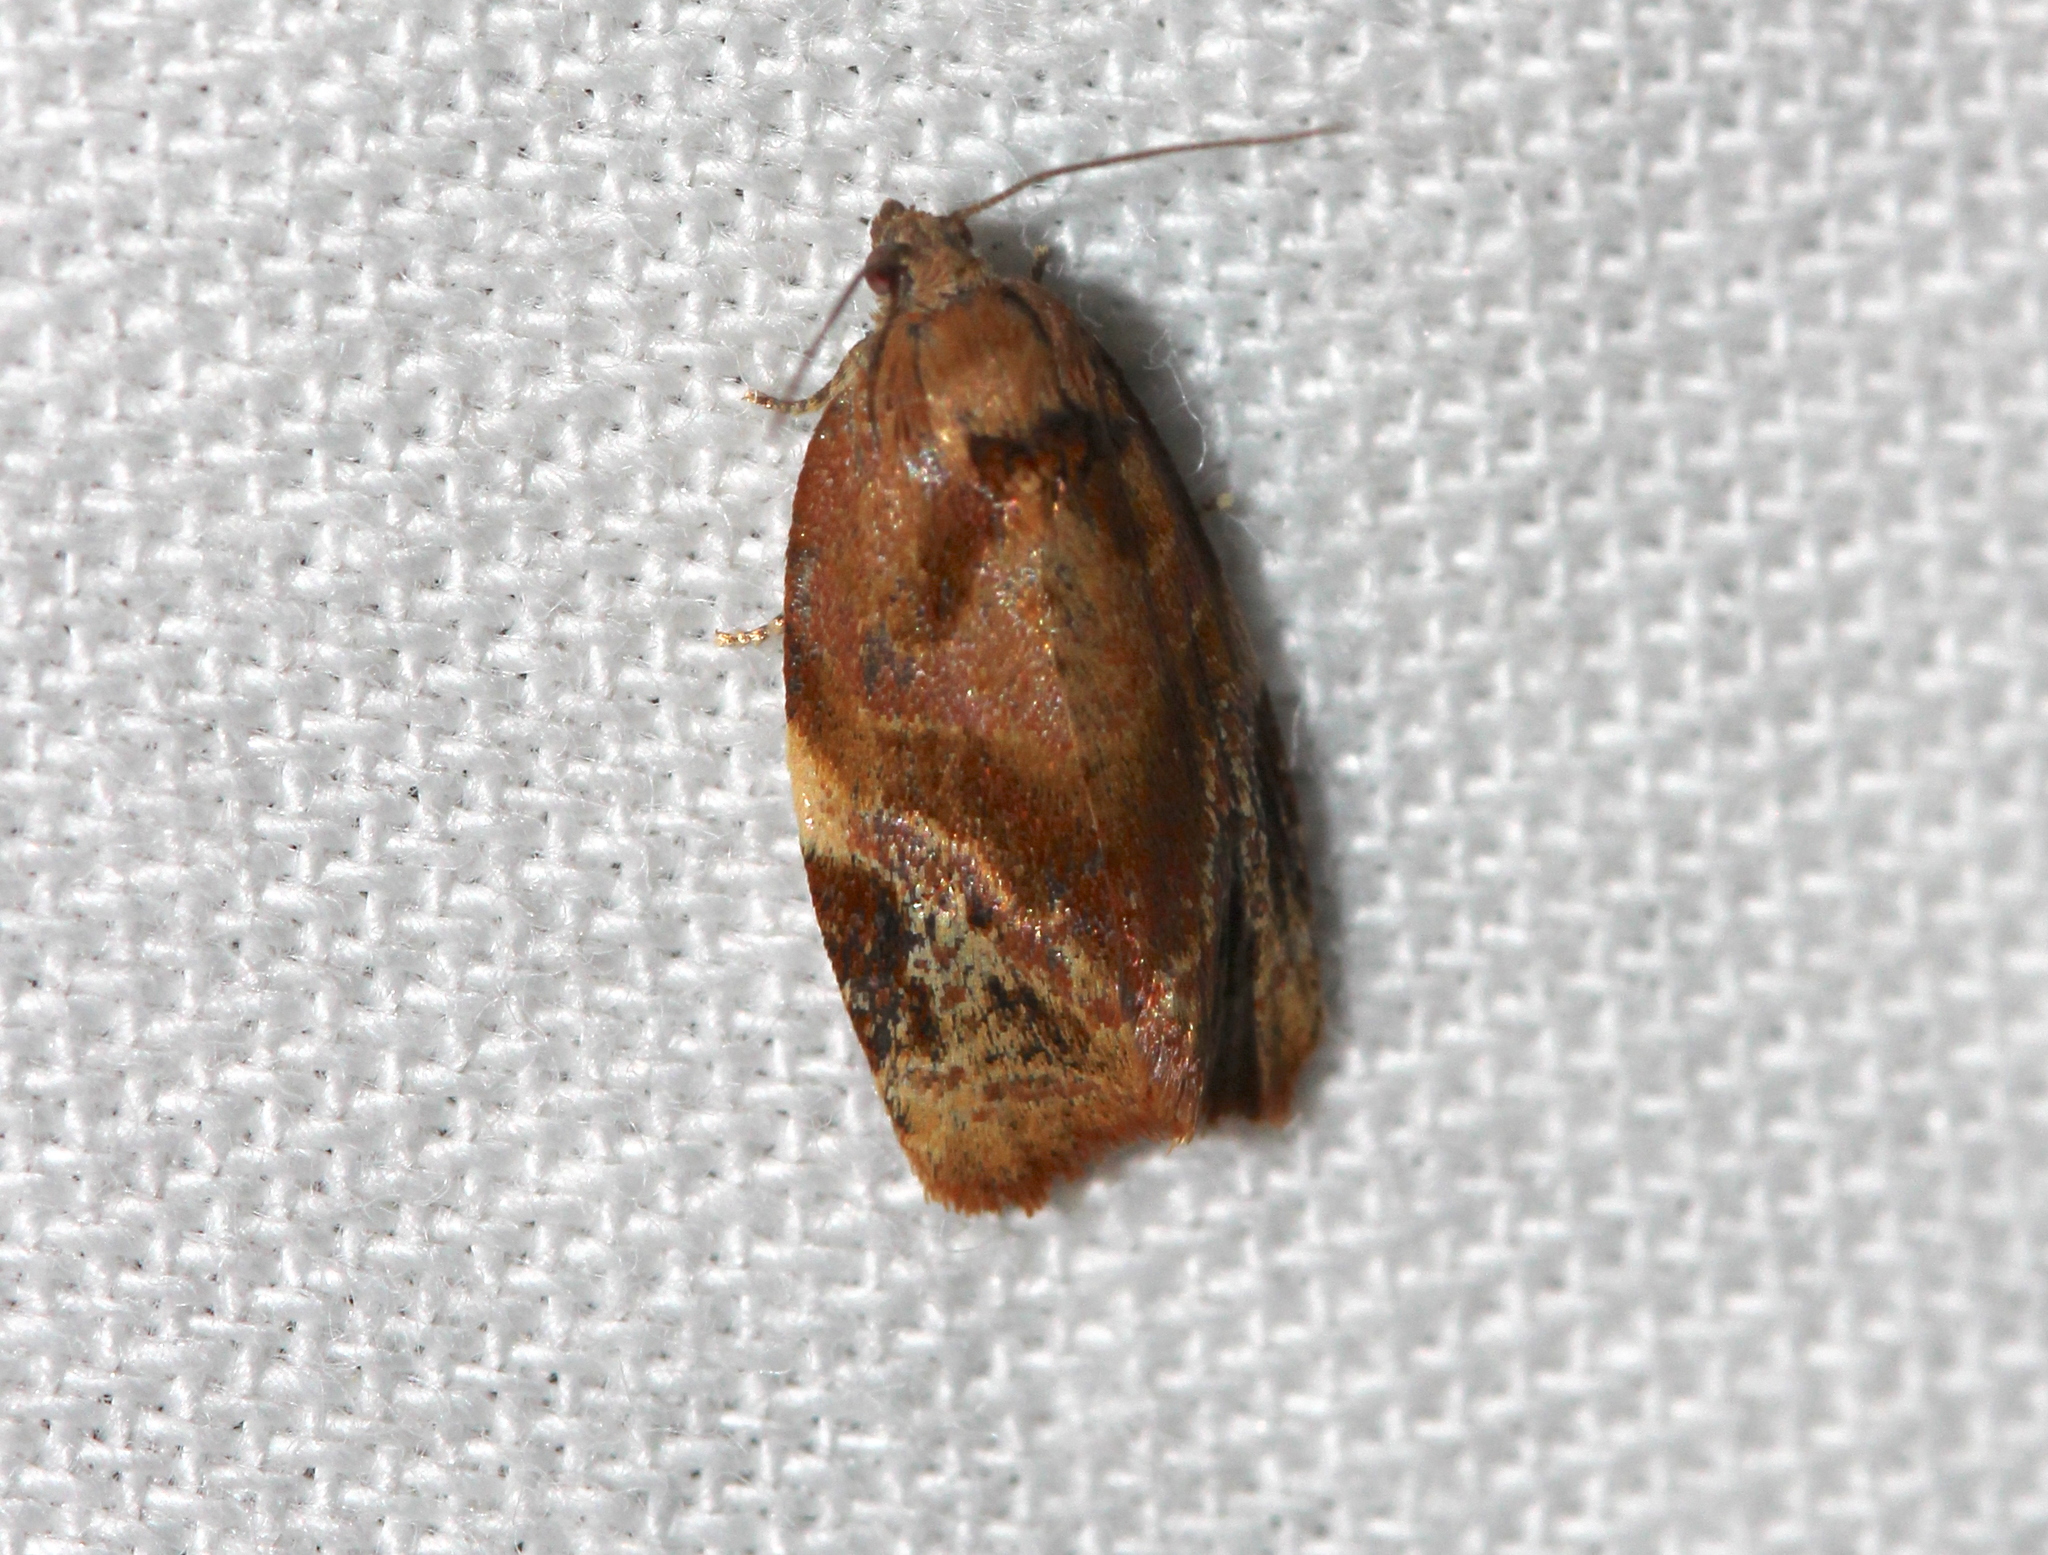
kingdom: Animalia
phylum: Arthropoda
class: Insecta
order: Lepidoptera
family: Tortricidae
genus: Ditula
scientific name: Ditula angustiorana
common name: Red-barred tortrix
